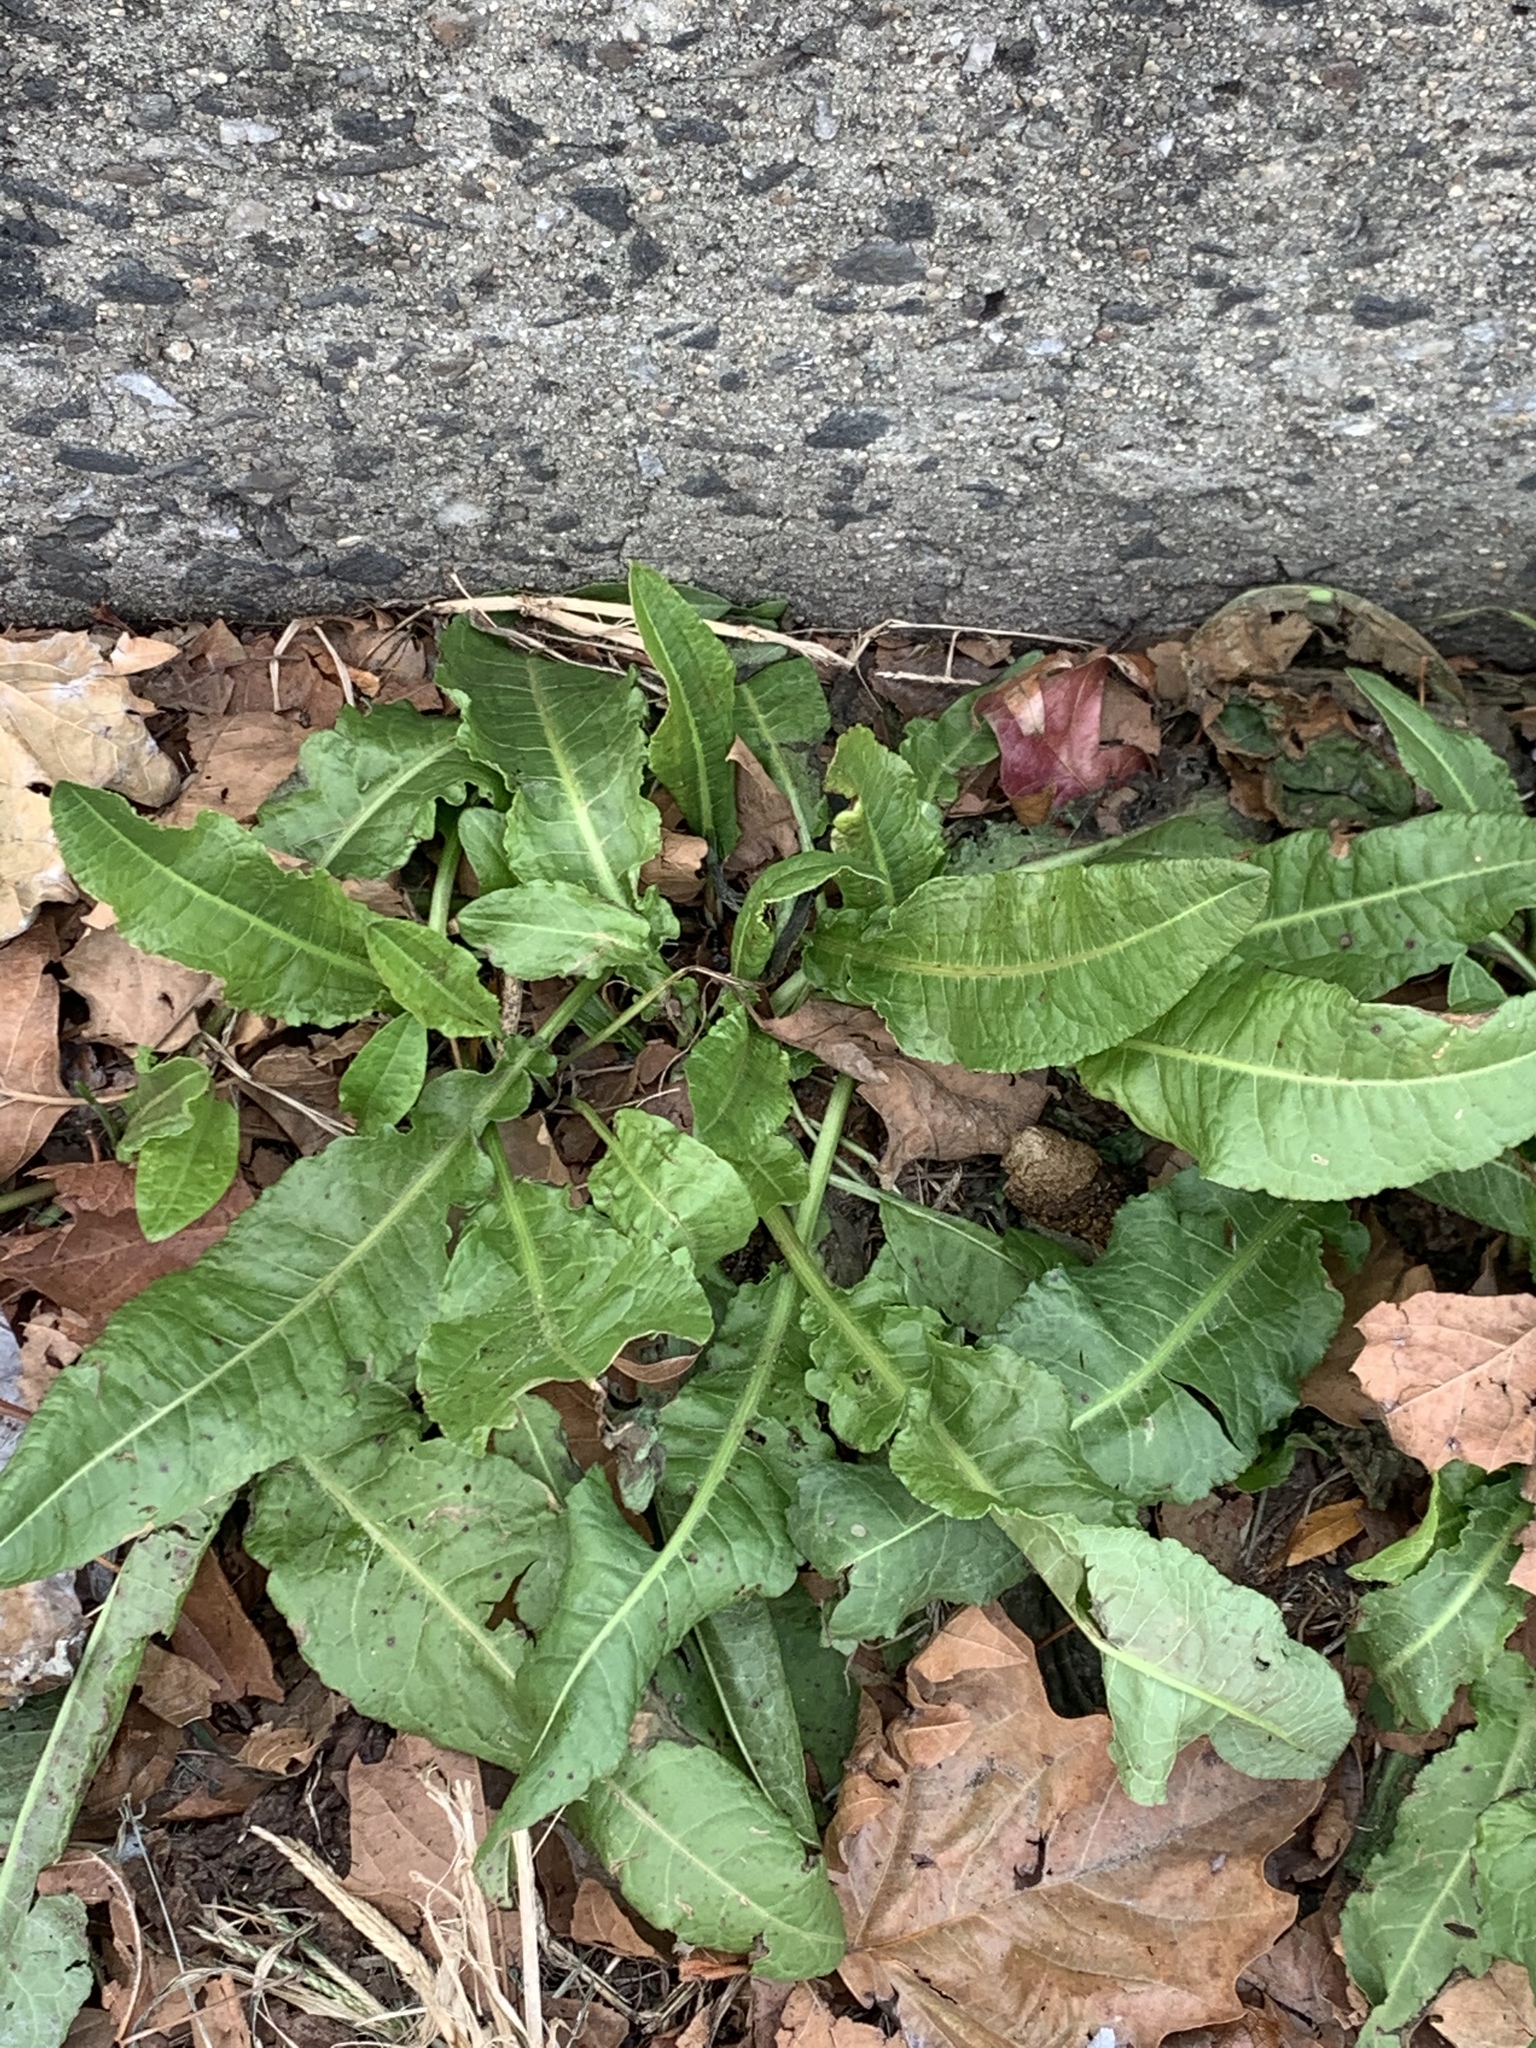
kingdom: Plantae
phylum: Tracheophyta
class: Magnoliopsida
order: Caryophyllales
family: Polygonaceae
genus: Rumex
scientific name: Rumex crispus
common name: Curled dock
